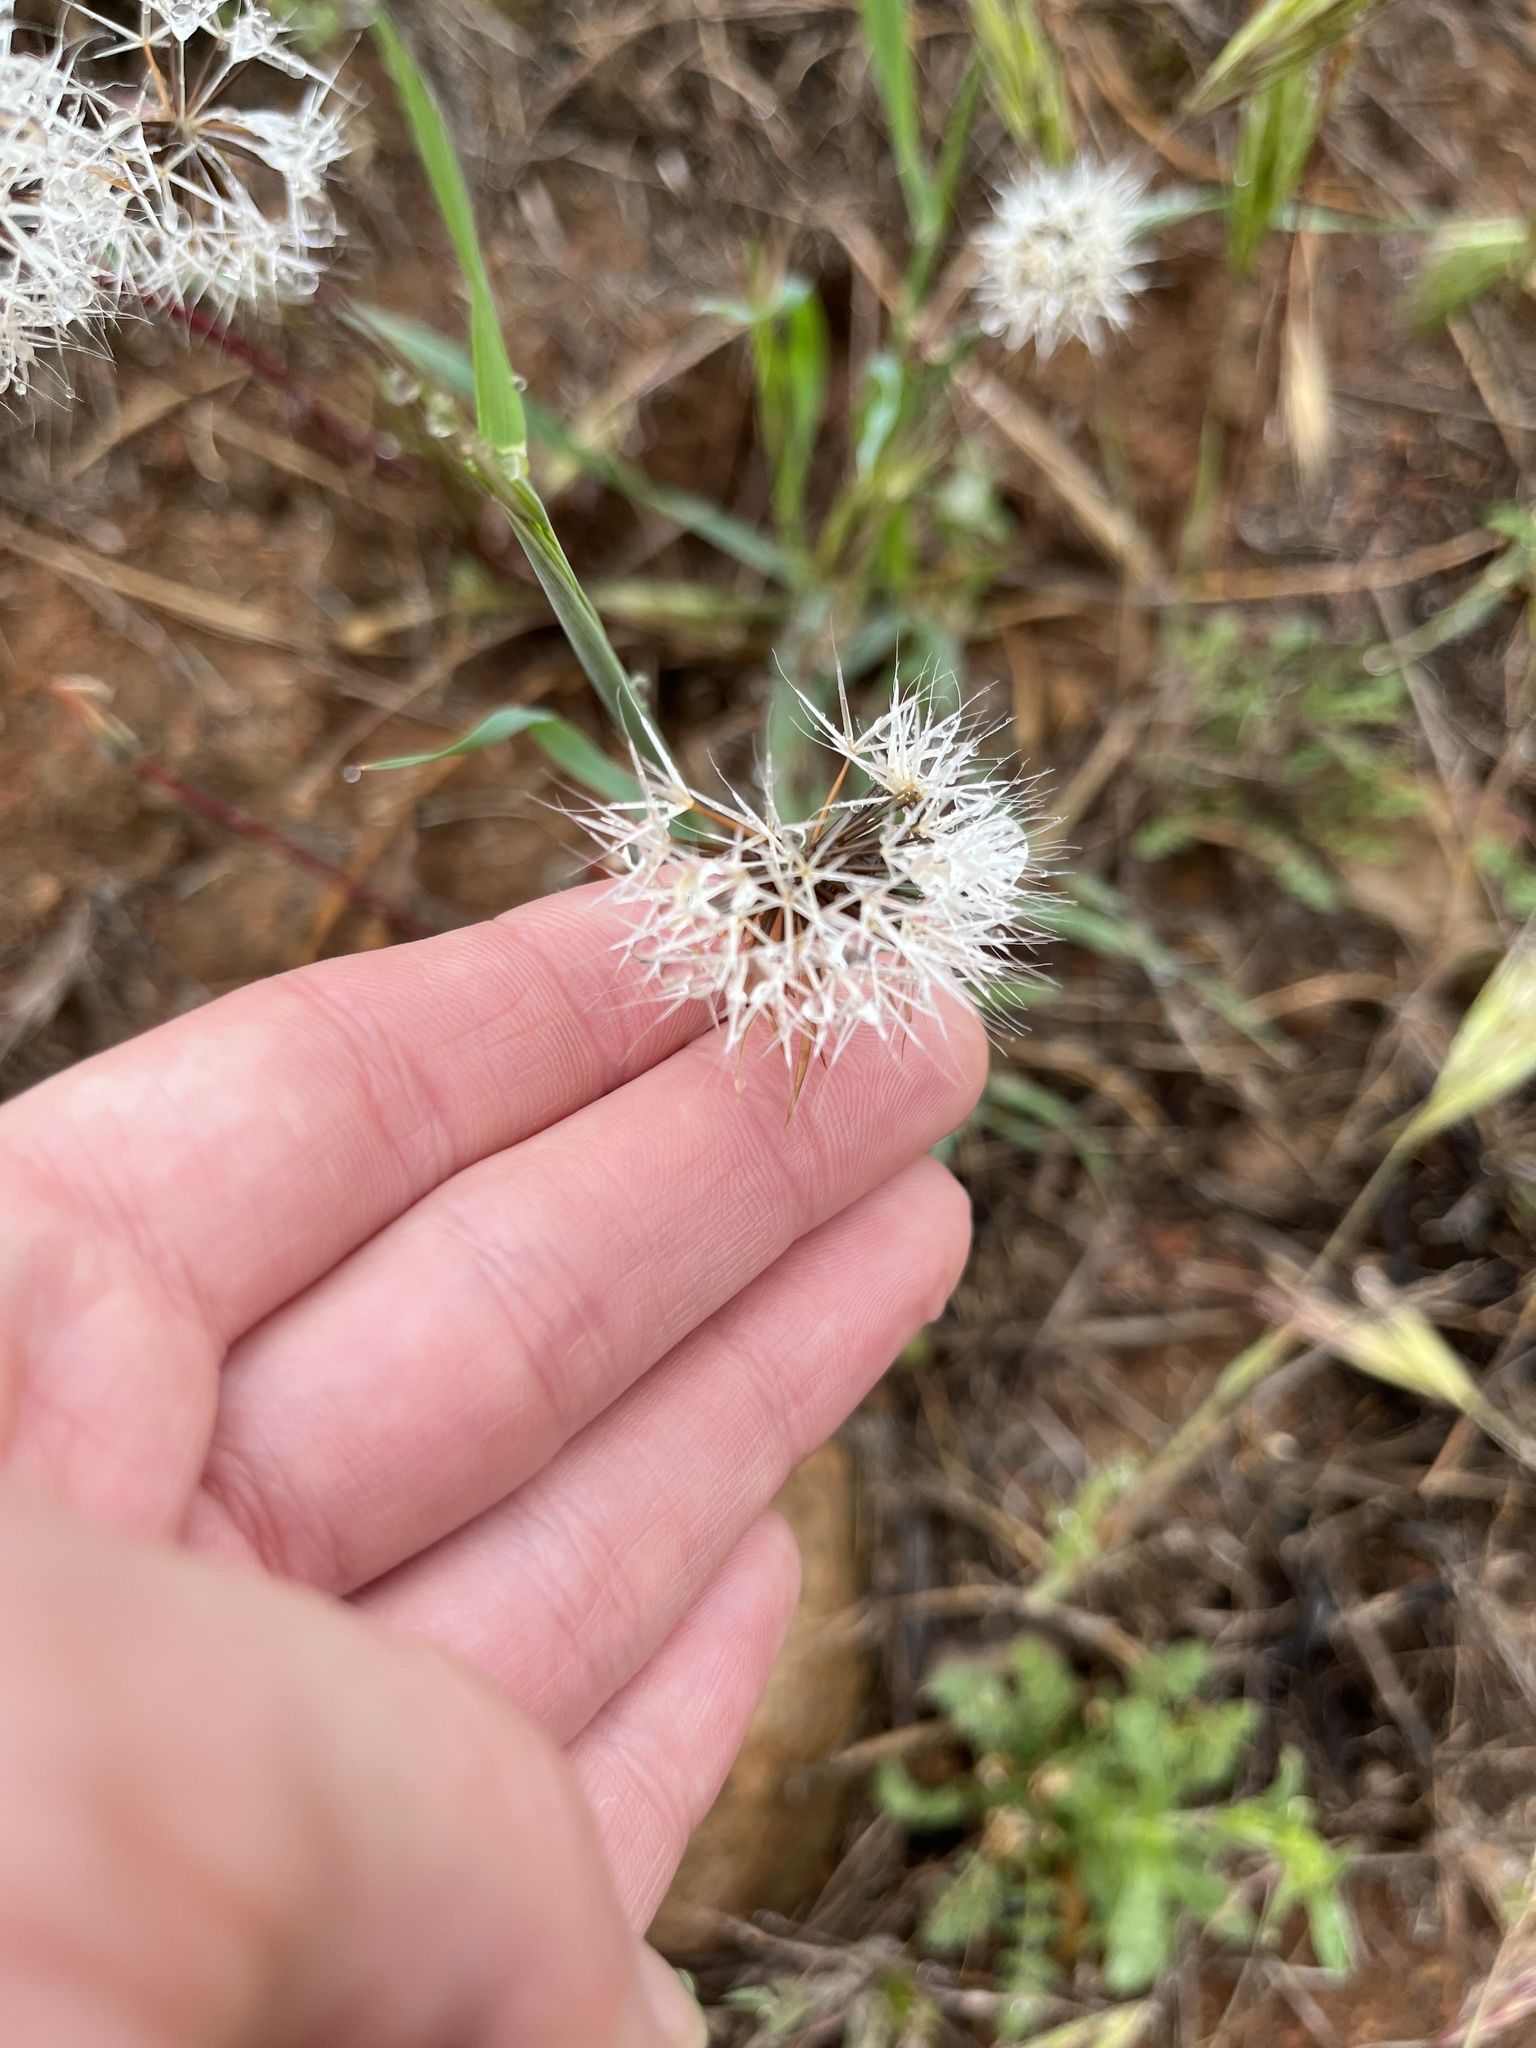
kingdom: Plantae
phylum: Tracheophyta
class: Magnoliopsida
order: Asterales
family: Asteraceae
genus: Microseris
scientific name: Microseris lindleyi
